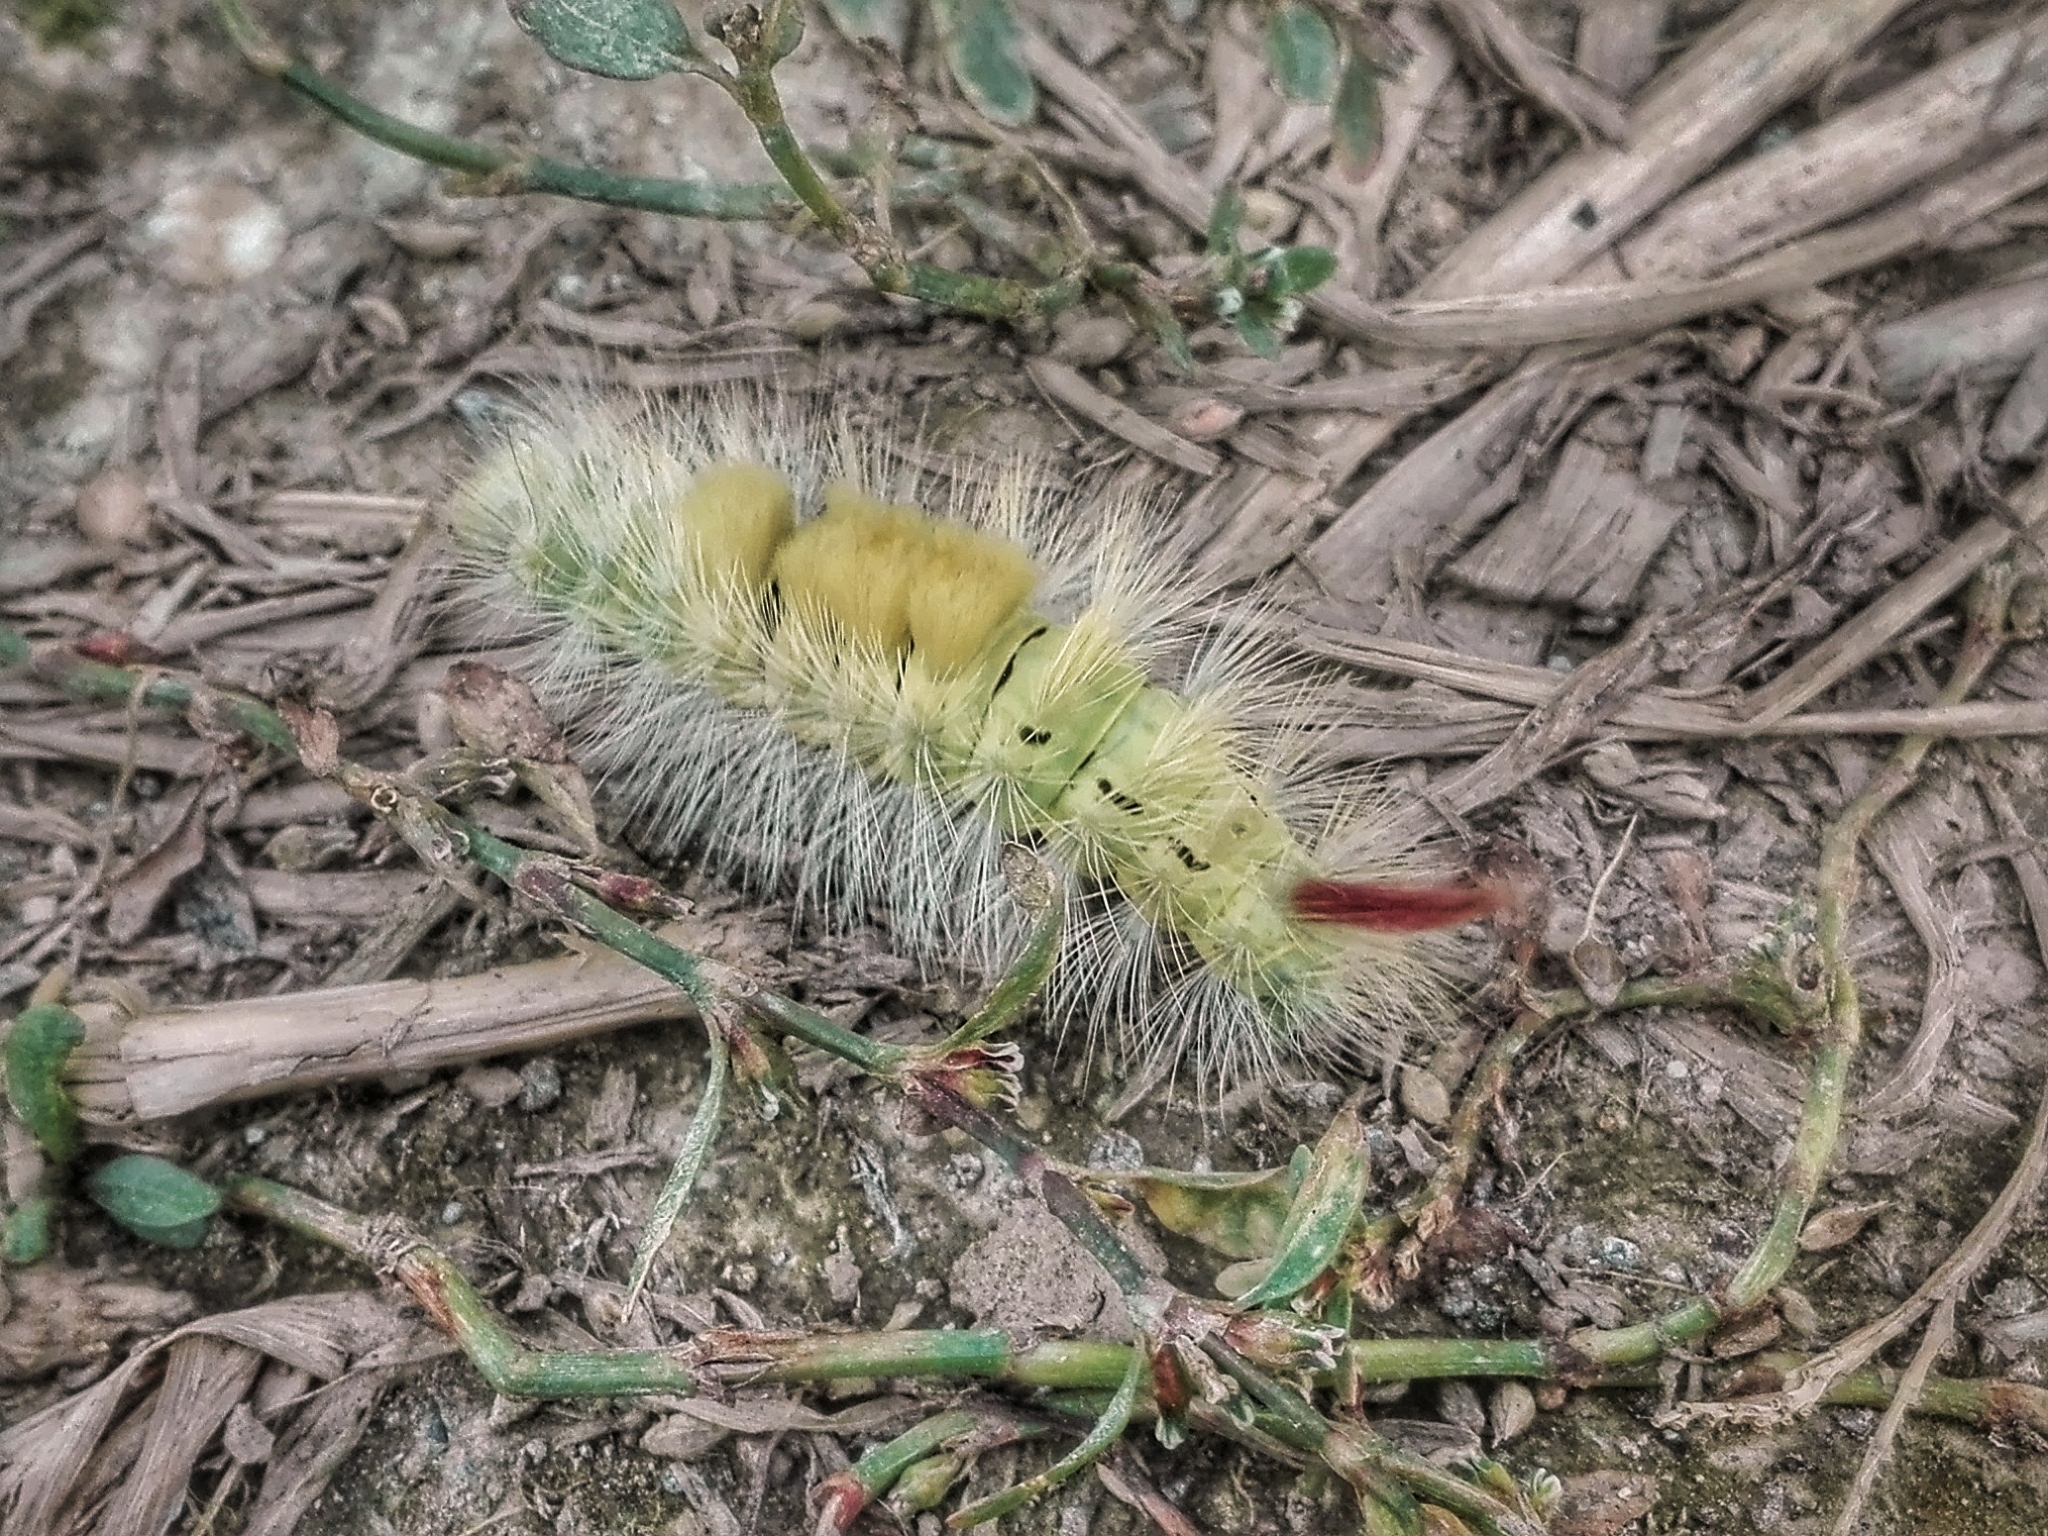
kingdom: Animalia
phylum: Arthropoda
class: Insecta
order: Lepidoptera
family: Erebidae
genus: Calliteara
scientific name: Calliteara pudibunda
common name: Pale tussock
